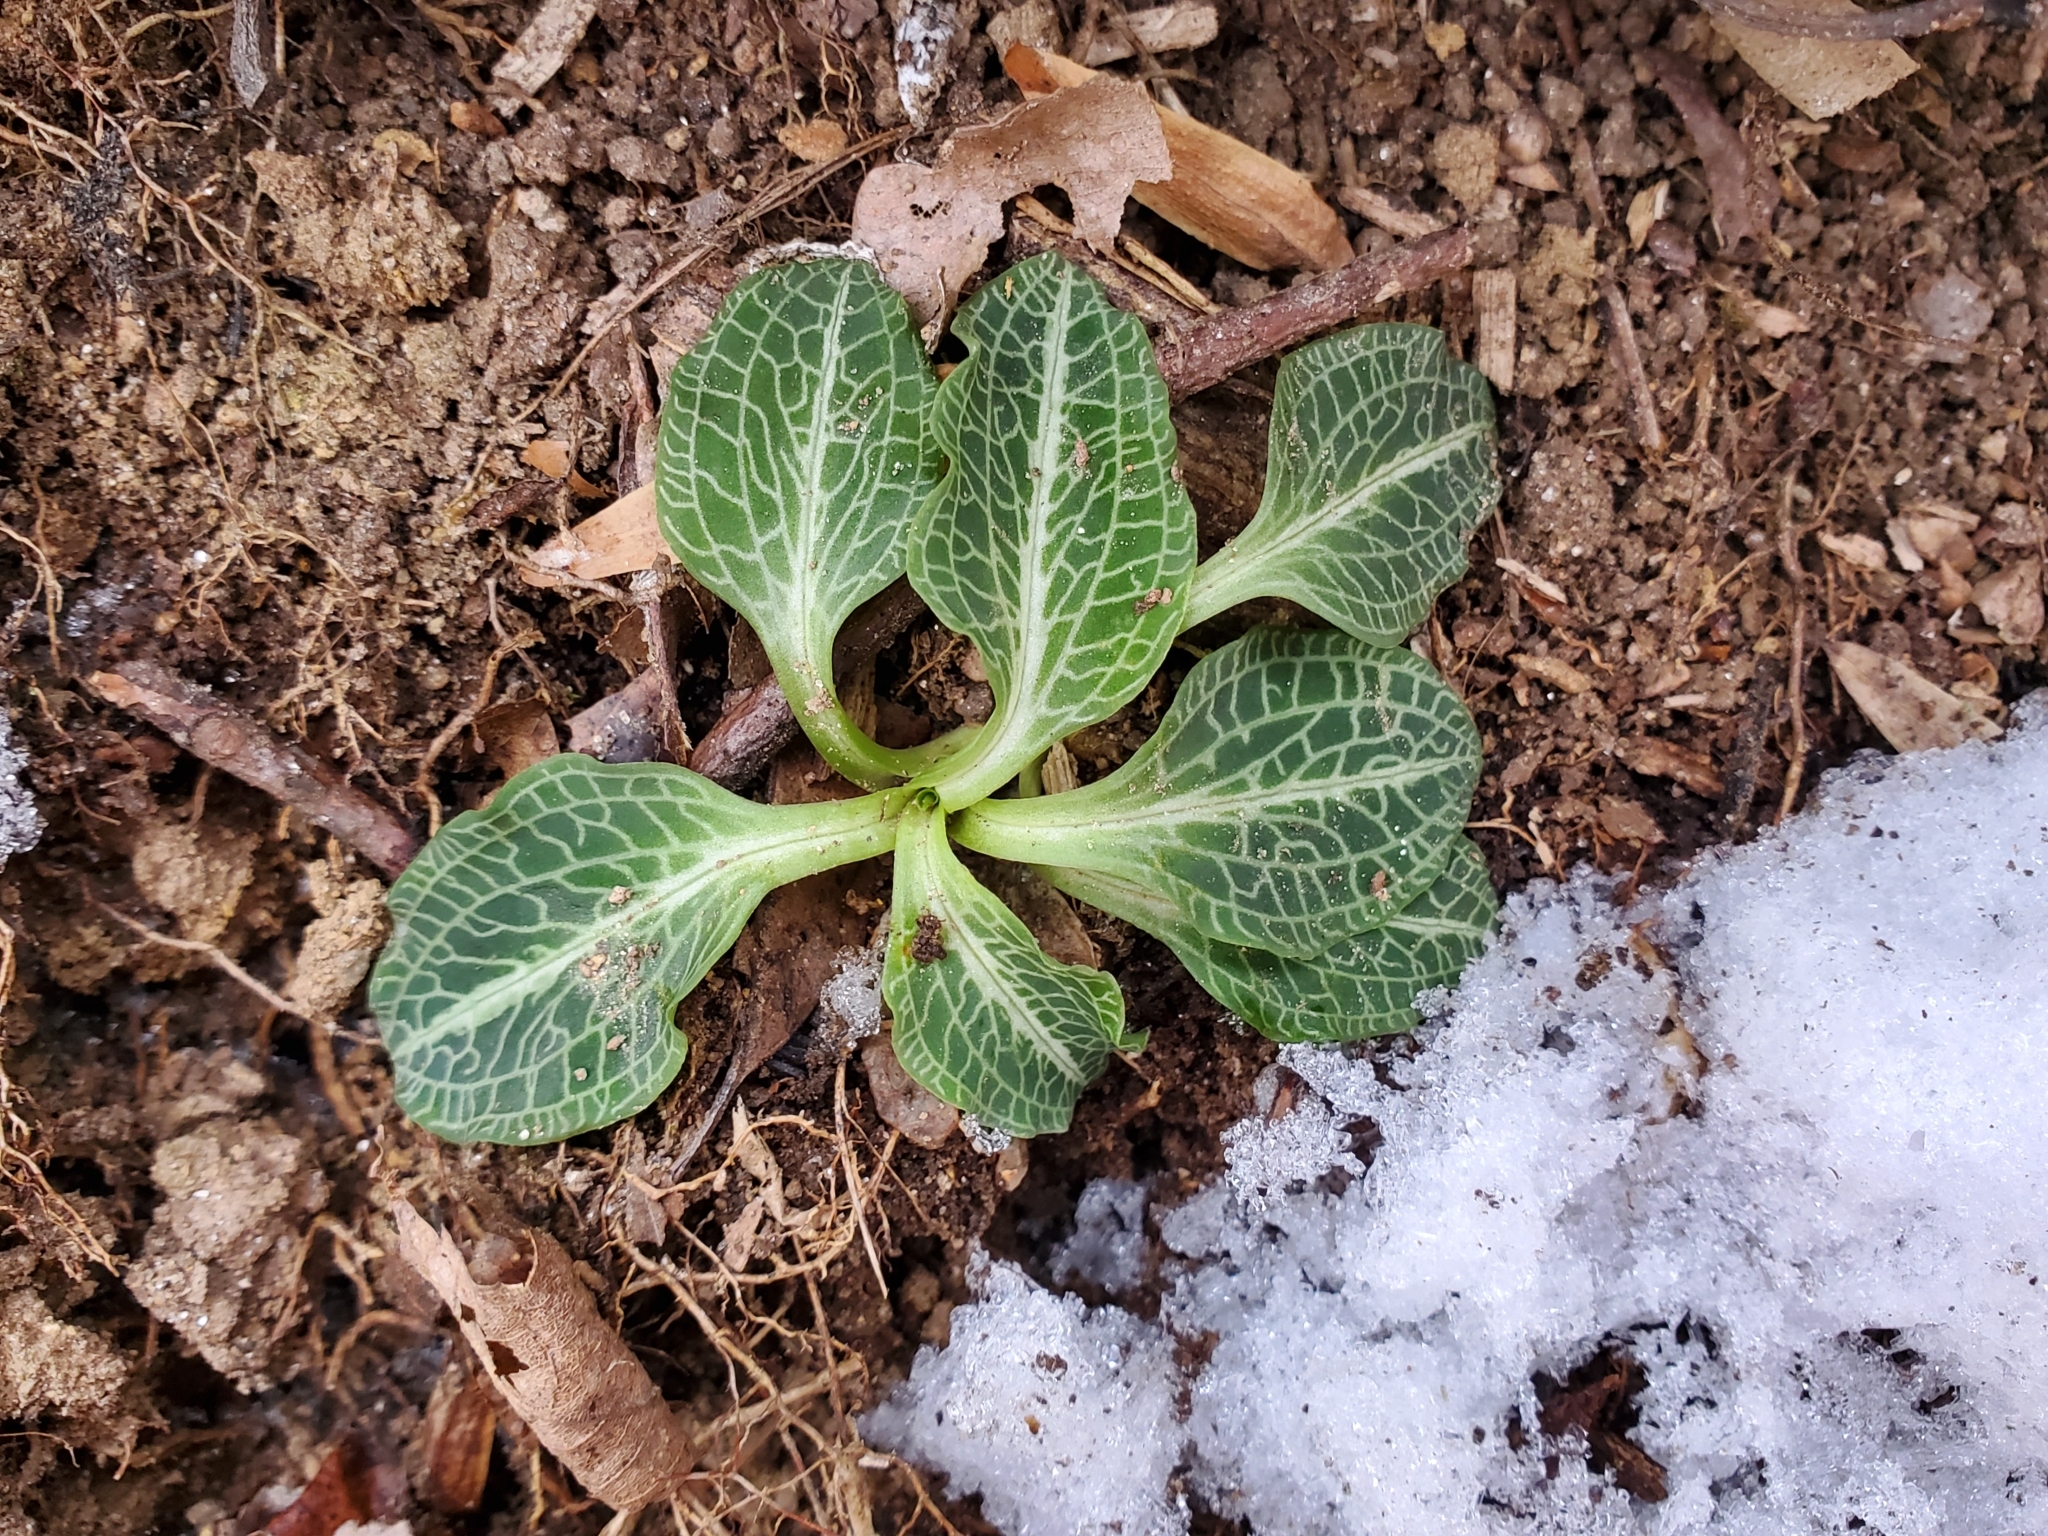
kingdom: Plantae
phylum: Tracheophyta
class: Liliopsida
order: Asparagales
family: Orchidaceae
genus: Goodyera
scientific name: Goodyera pubescens
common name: Downy rattlesnake-plantain
